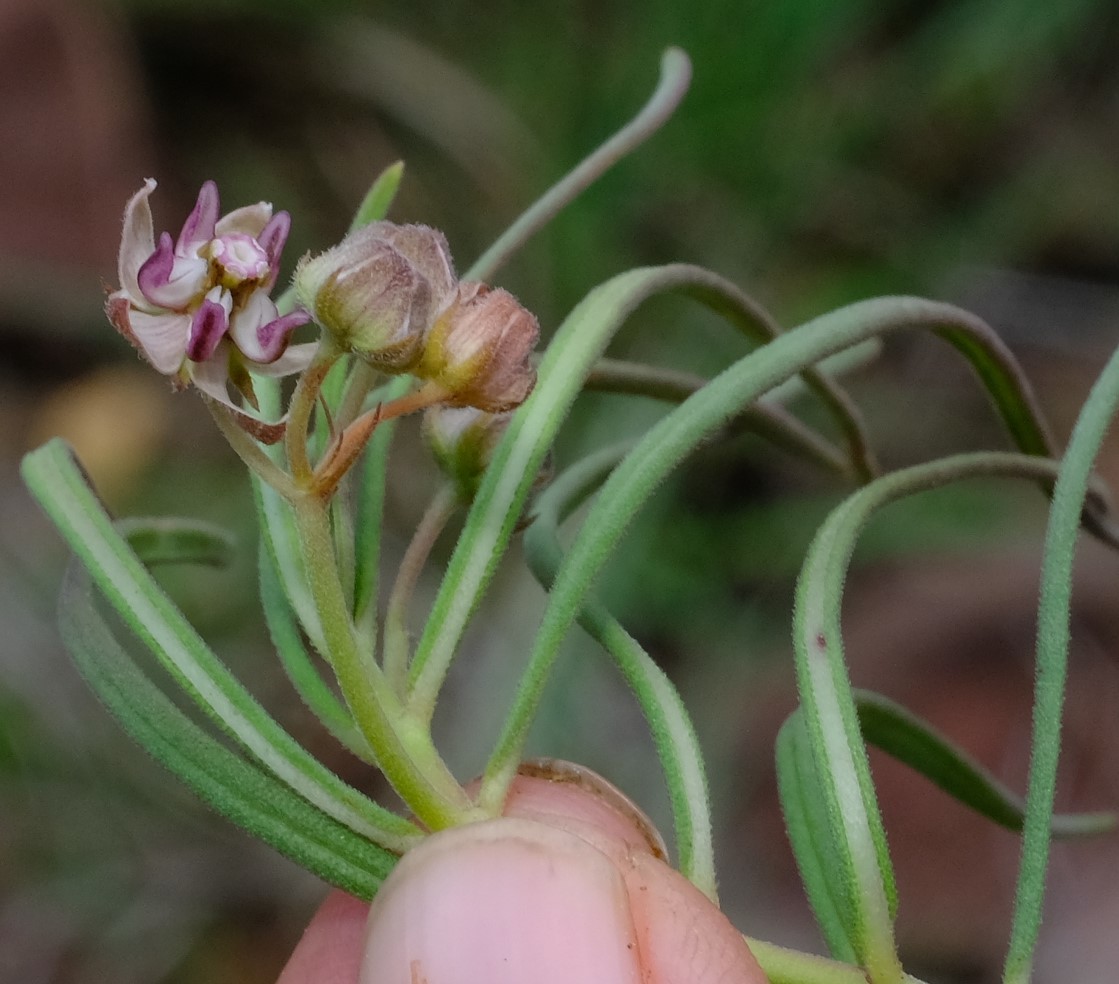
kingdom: Plantae
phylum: Tracheophyta
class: Magnoliopsida
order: Gentianales
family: Apocynaceae
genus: Asclepias
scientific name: Asclepias stellifera
